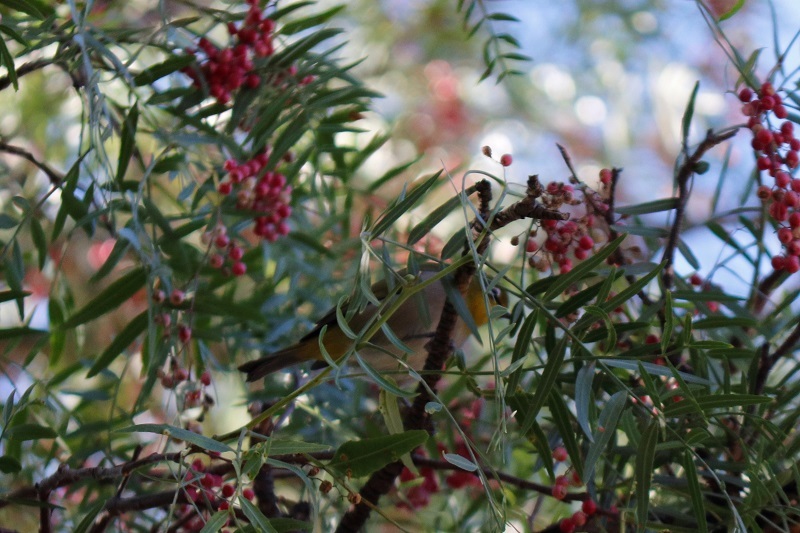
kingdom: Animalia
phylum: Chordata
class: Aves
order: Passeriformes
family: Zosteropidae
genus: Zosterops
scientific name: Zosterops virens
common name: Cape white-eye
